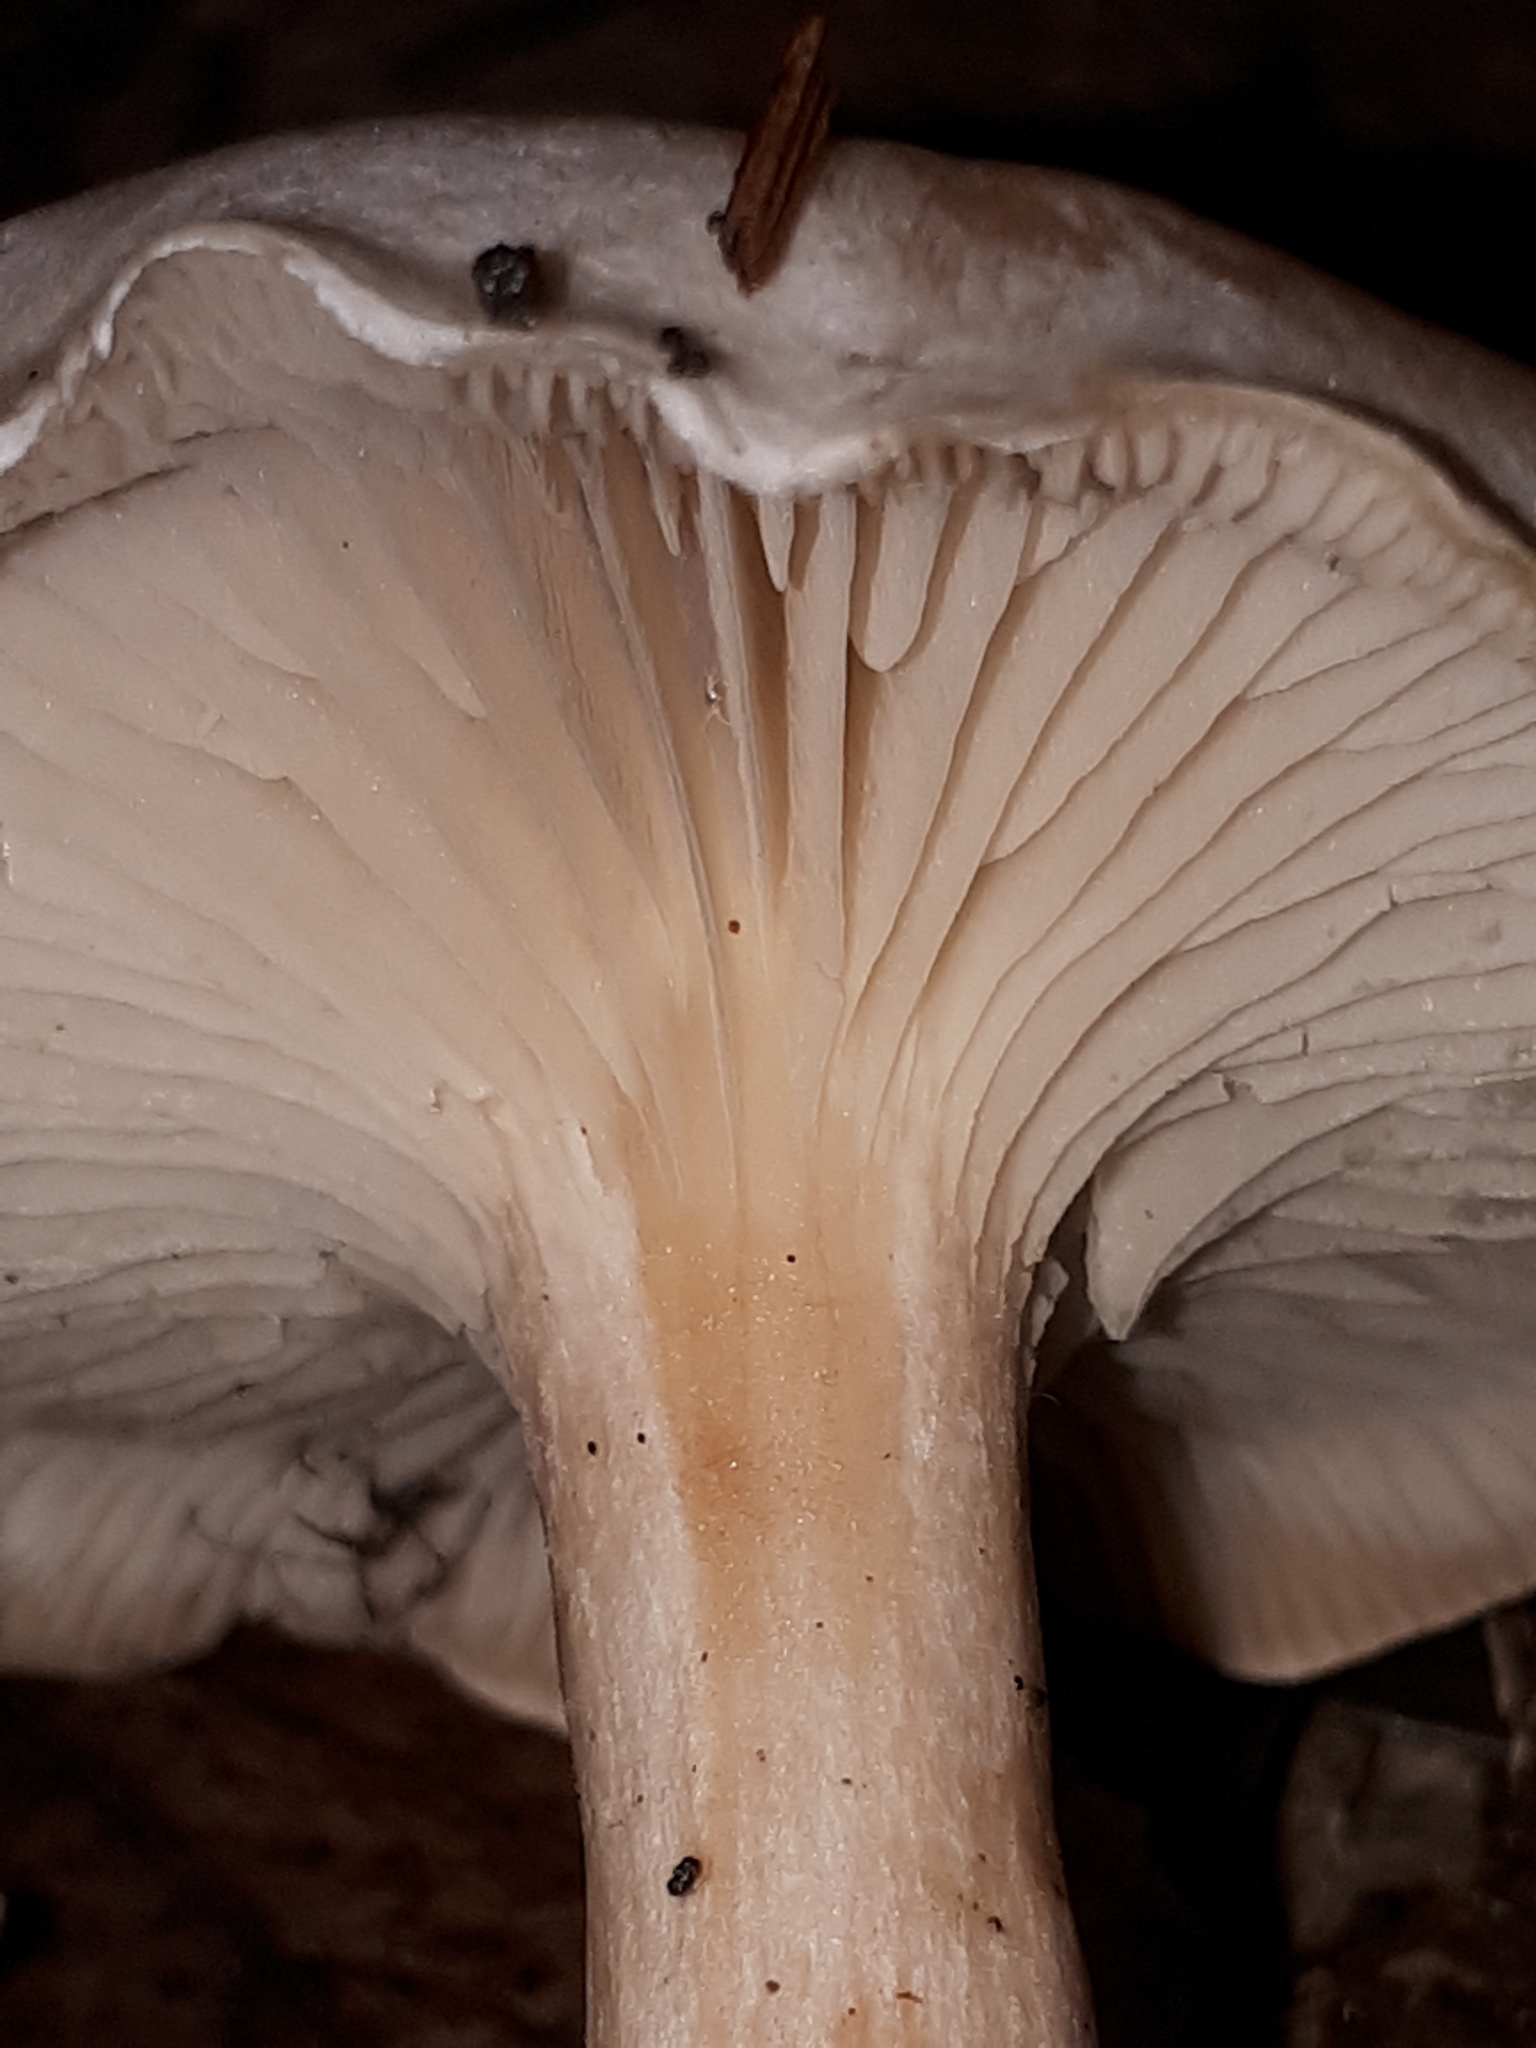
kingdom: Fungi
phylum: Basidiomycota
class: Agaricomycetes
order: Agaricales
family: Tricholomataceae
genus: Collybia
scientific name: Collybia phylladophila
